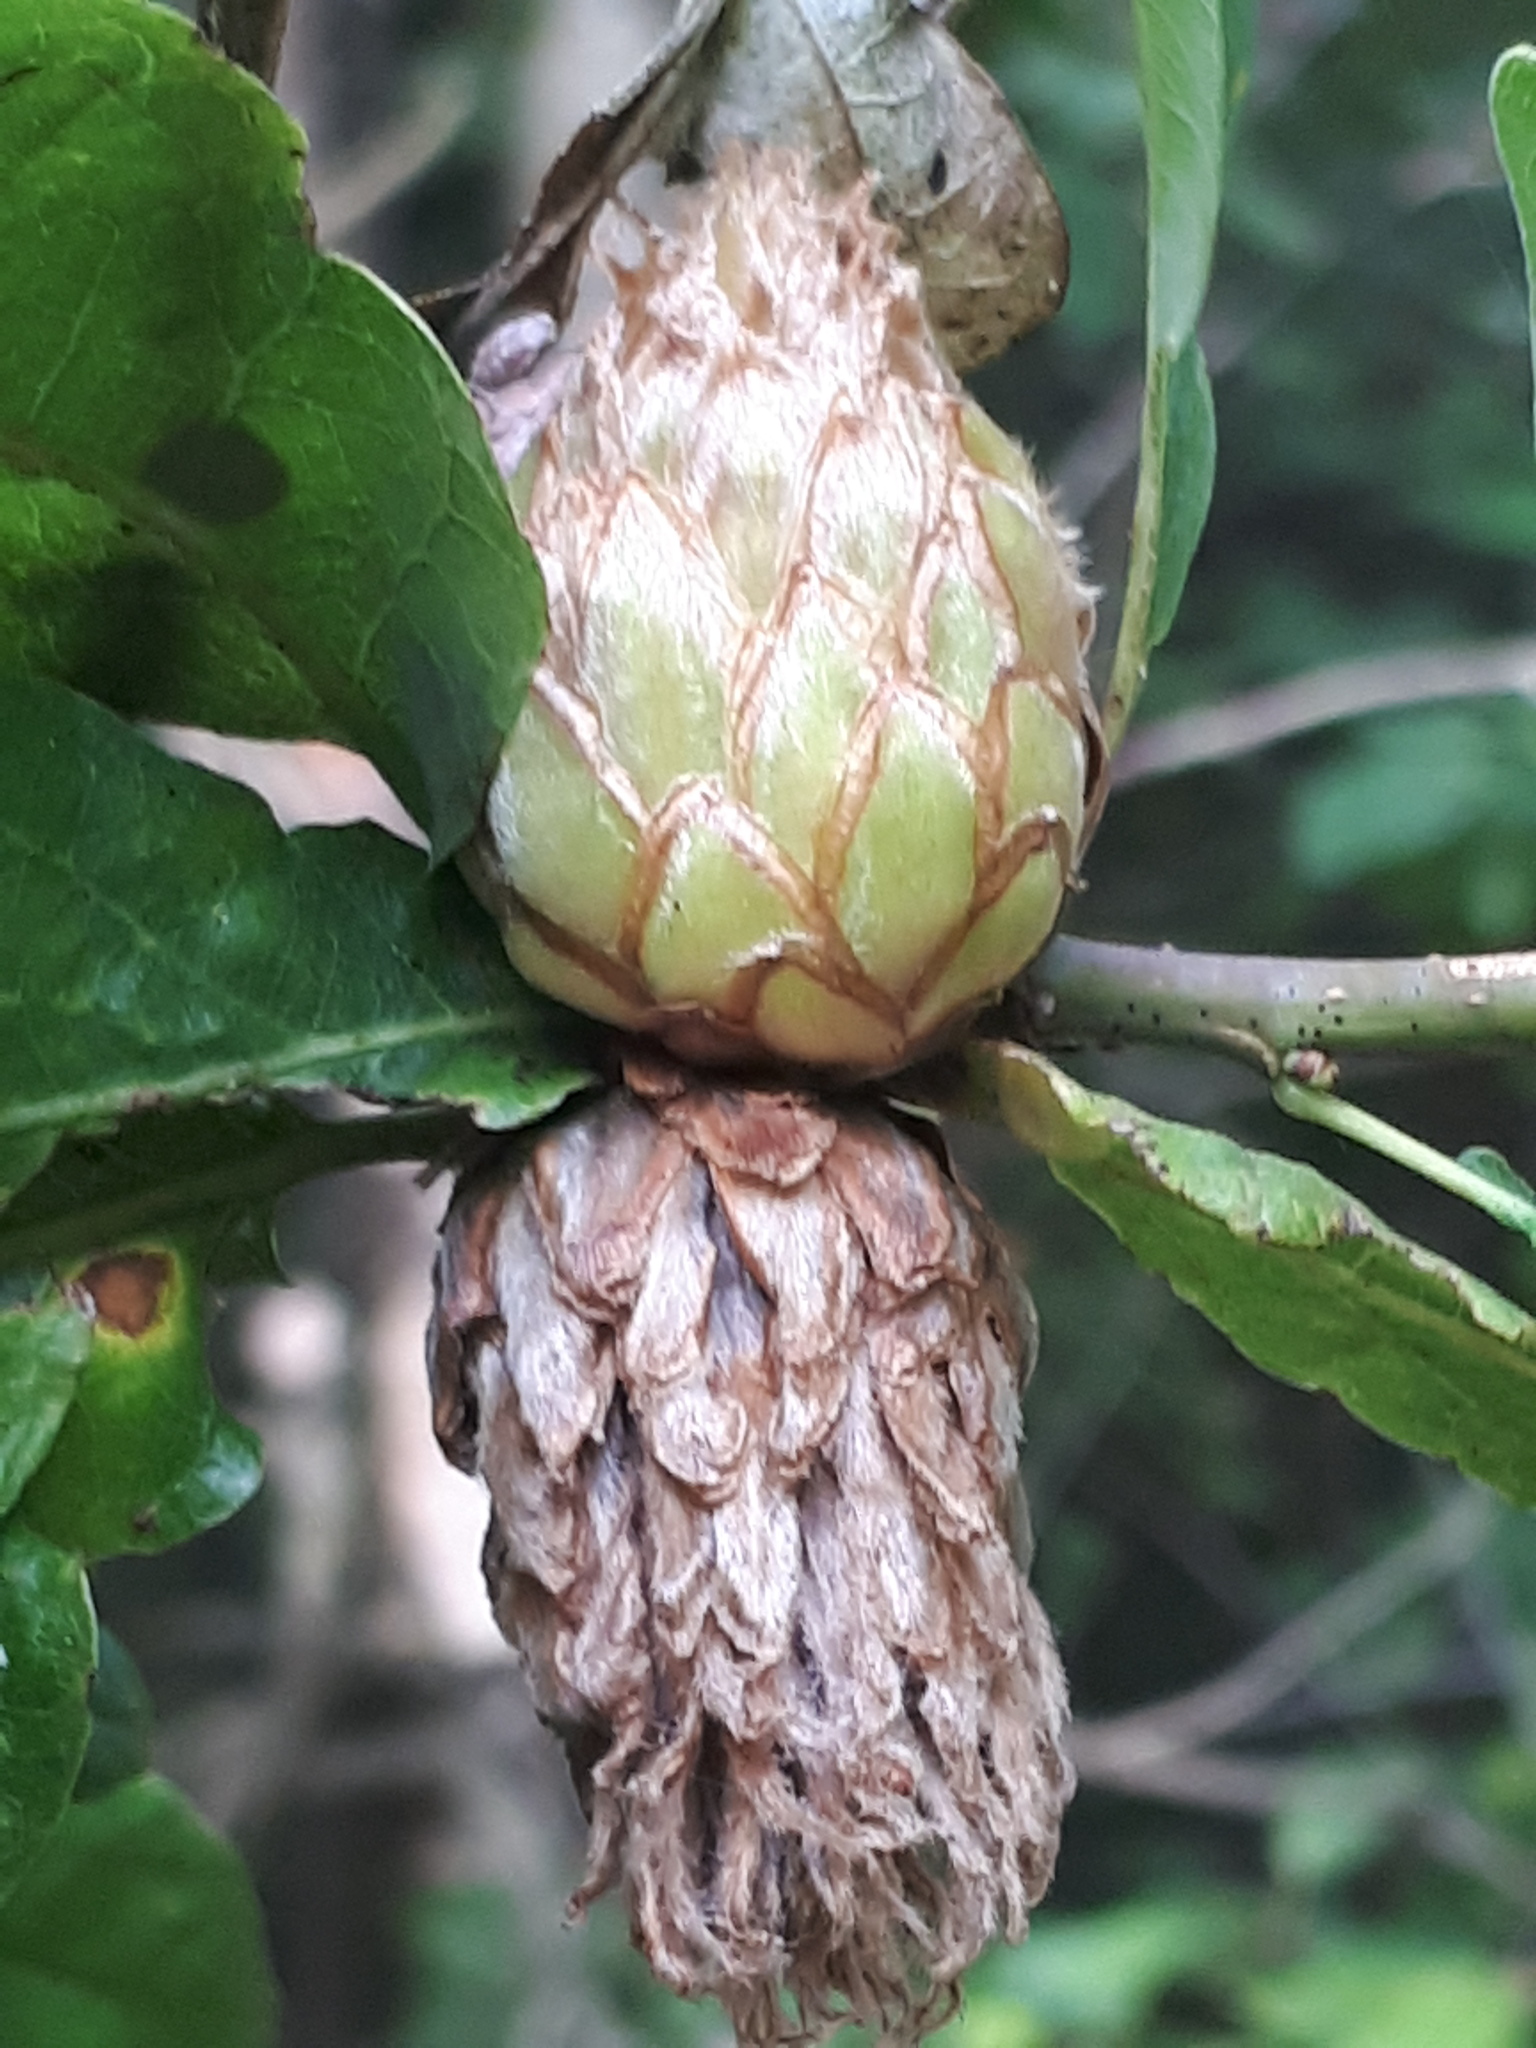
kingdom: Animalia
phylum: Arthropoda
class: Insecta
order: Hymenoptera
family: Cynipidae
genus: Andricus
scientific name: Andricus foecundatrix
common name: Artichoke gall
